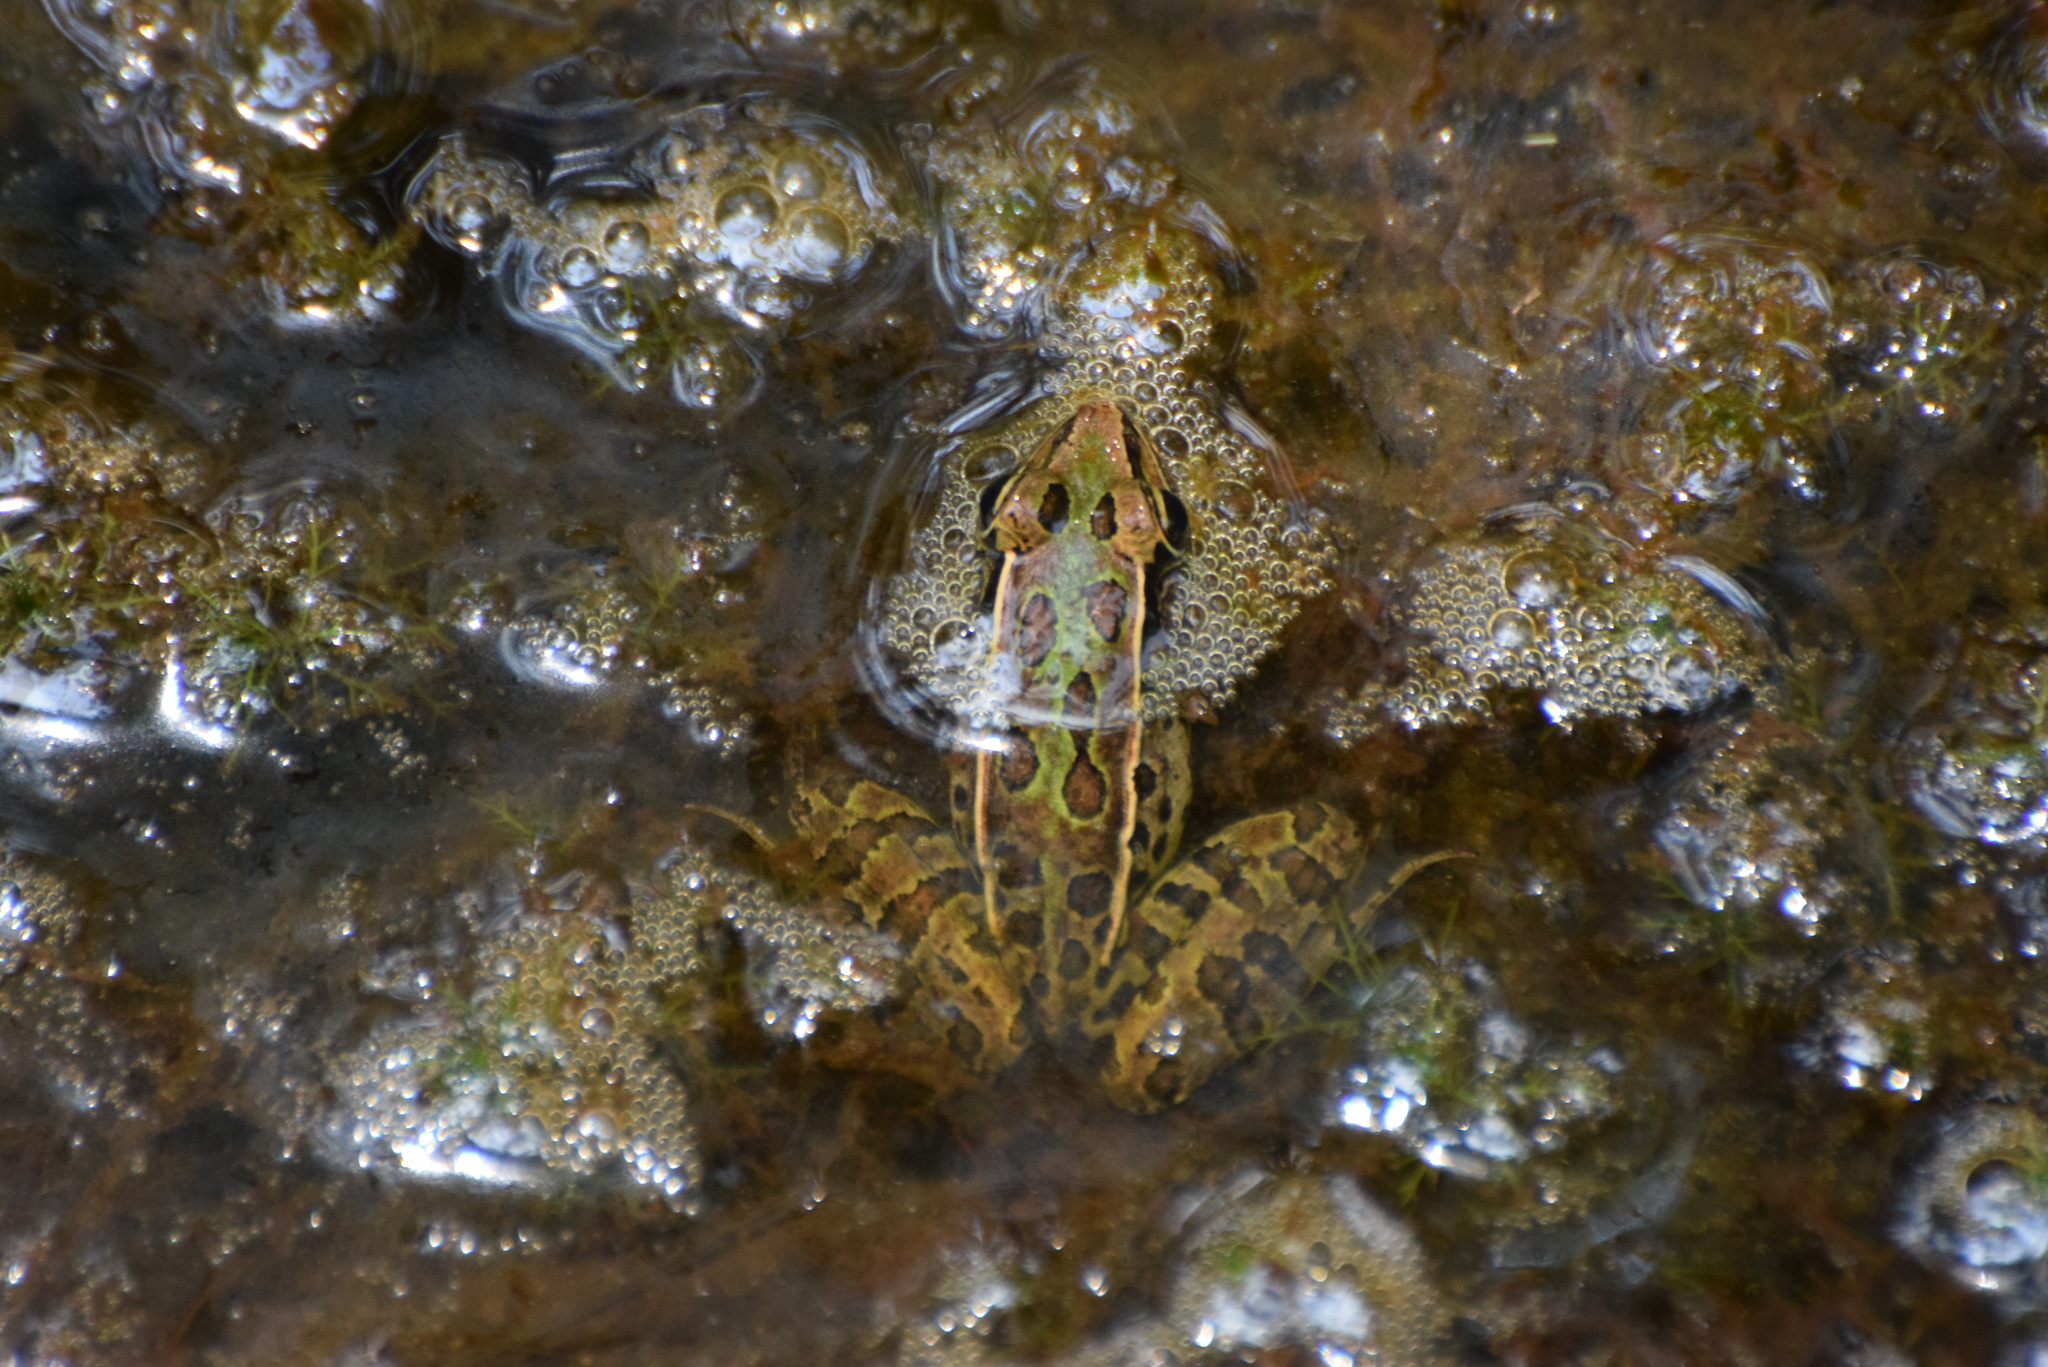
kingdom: Animalia
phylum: Chordata
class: Amphibia
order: Anura
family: Ranidae
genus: Lithobates
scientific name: Lithobates sphenocephalus
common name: Southern leopard frog
